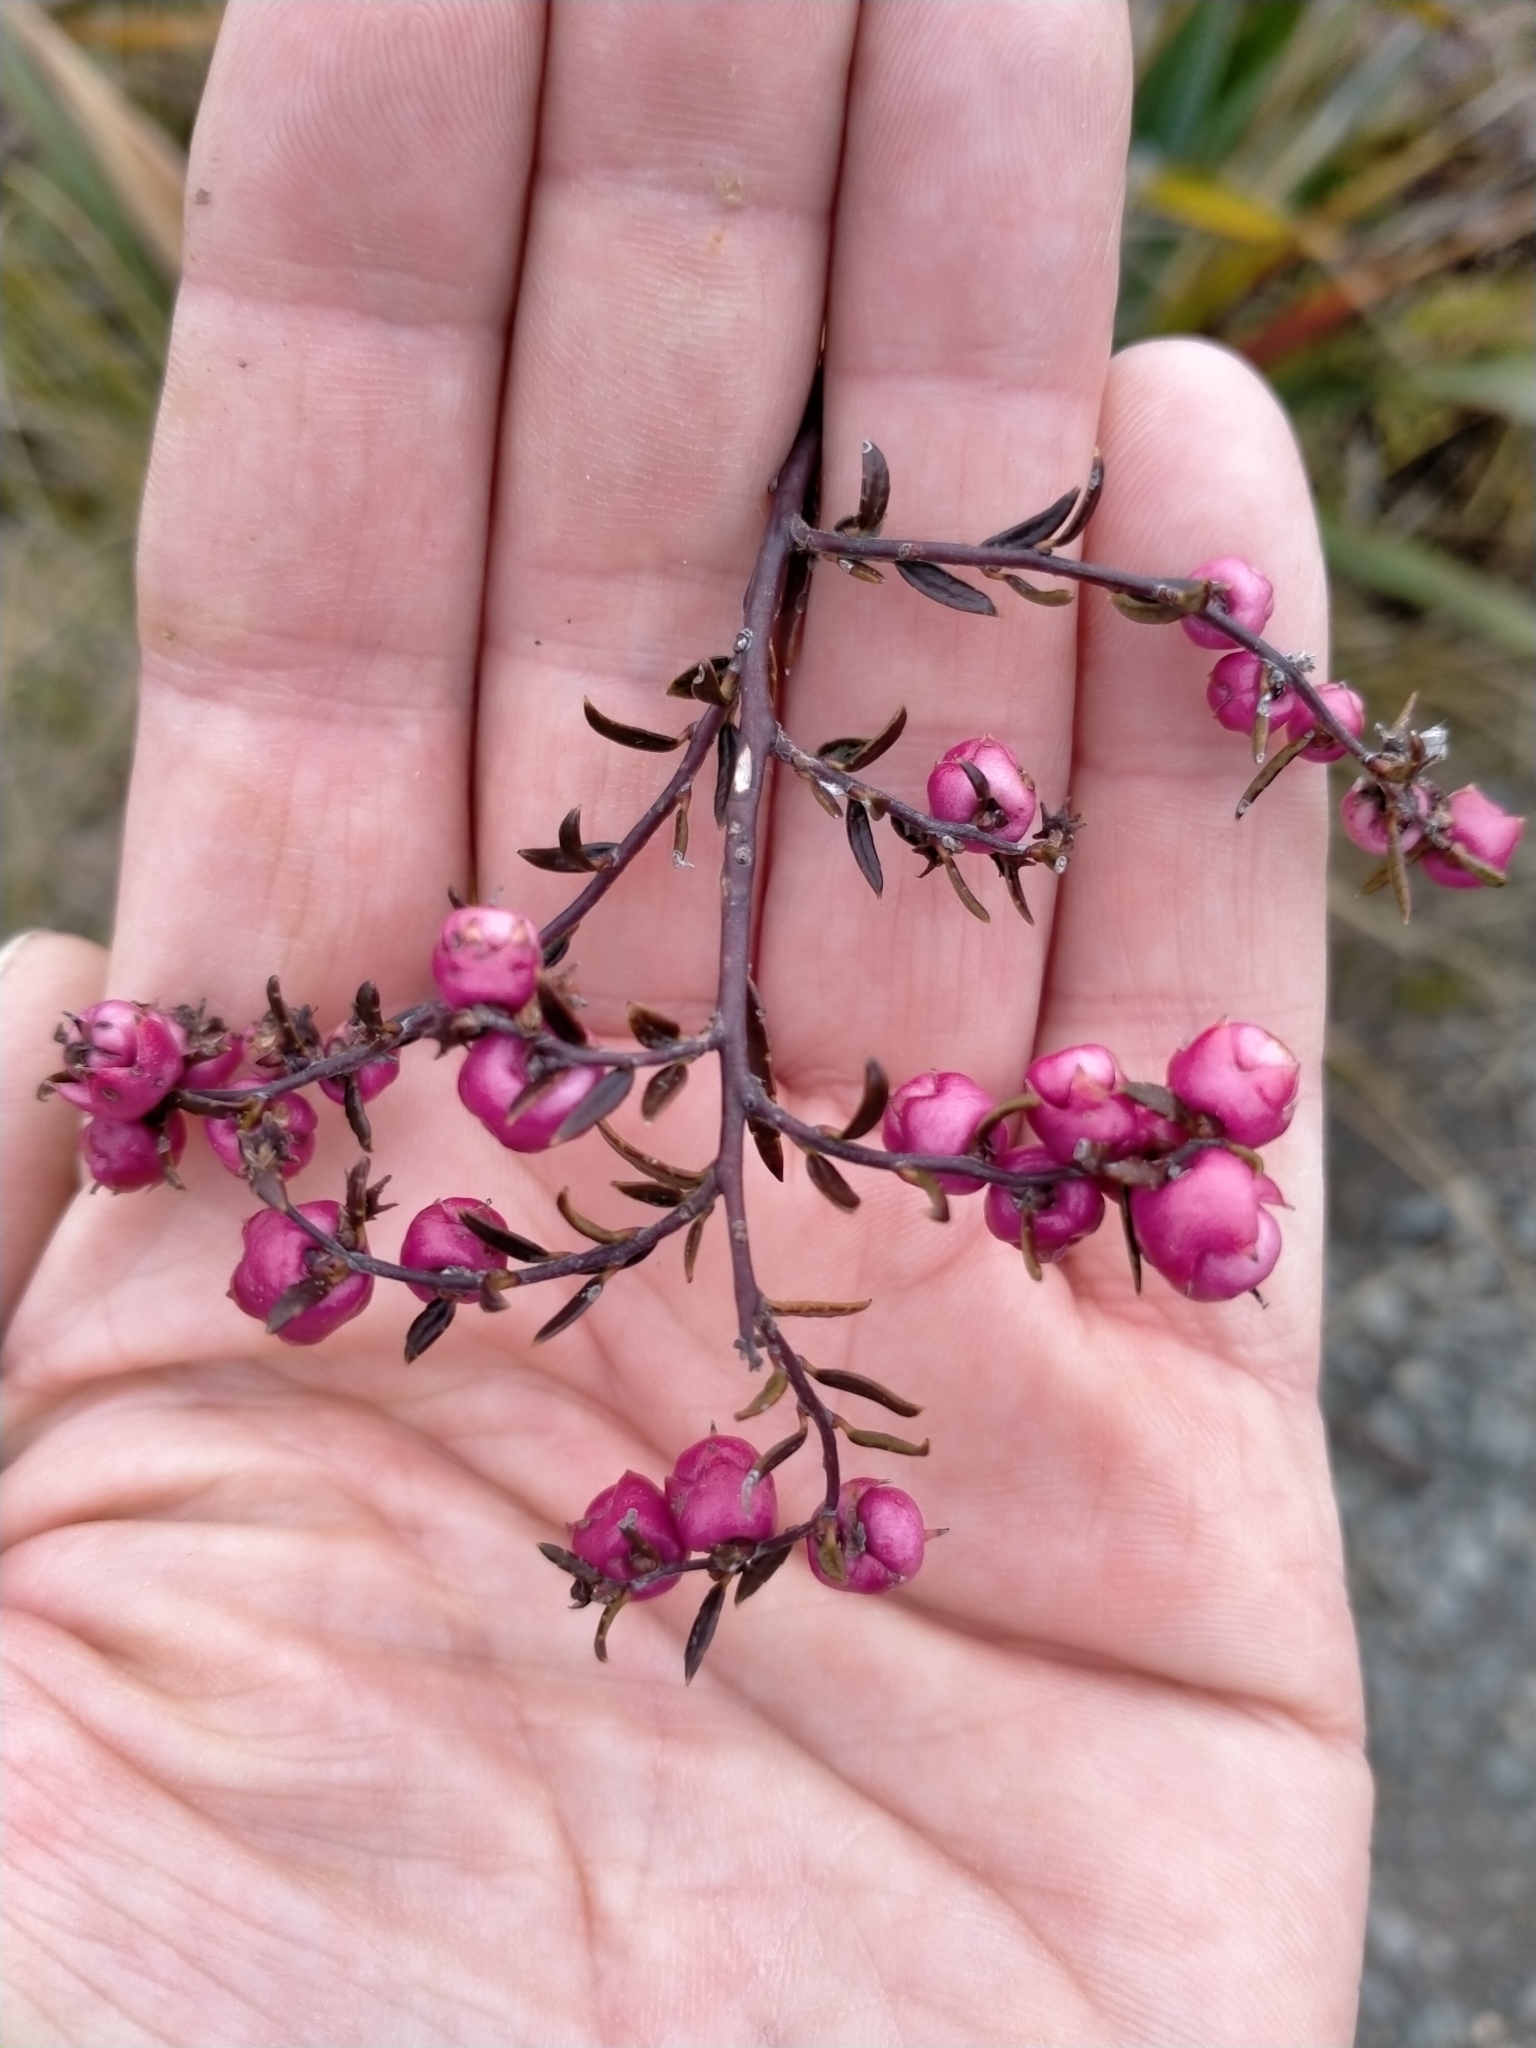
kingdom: Plantae
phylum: Tracheophyta
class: Magnoliopsida
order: Ericales
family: Ericaceae
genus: Gaultheria
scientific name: Gaultheria macrostigma
